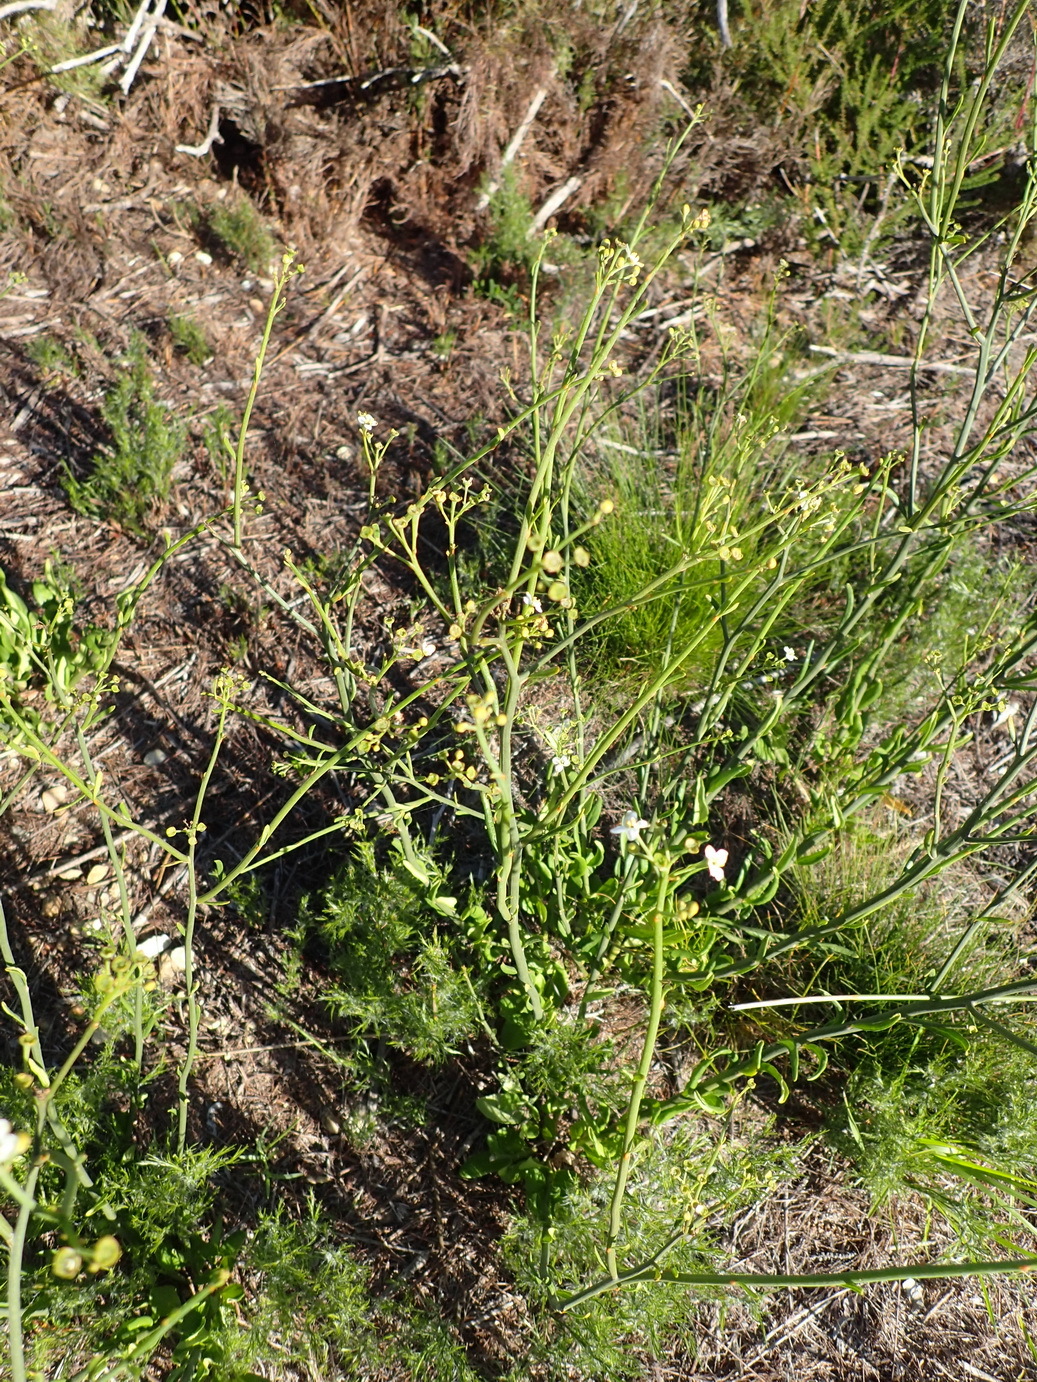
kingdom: Plantae
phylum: Tracheophyta
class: Magnoliopsida
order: Solanales
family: Montiniaceae
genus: Montinia
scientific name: Montinia caryophyllacea
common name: Wild clove-bush
